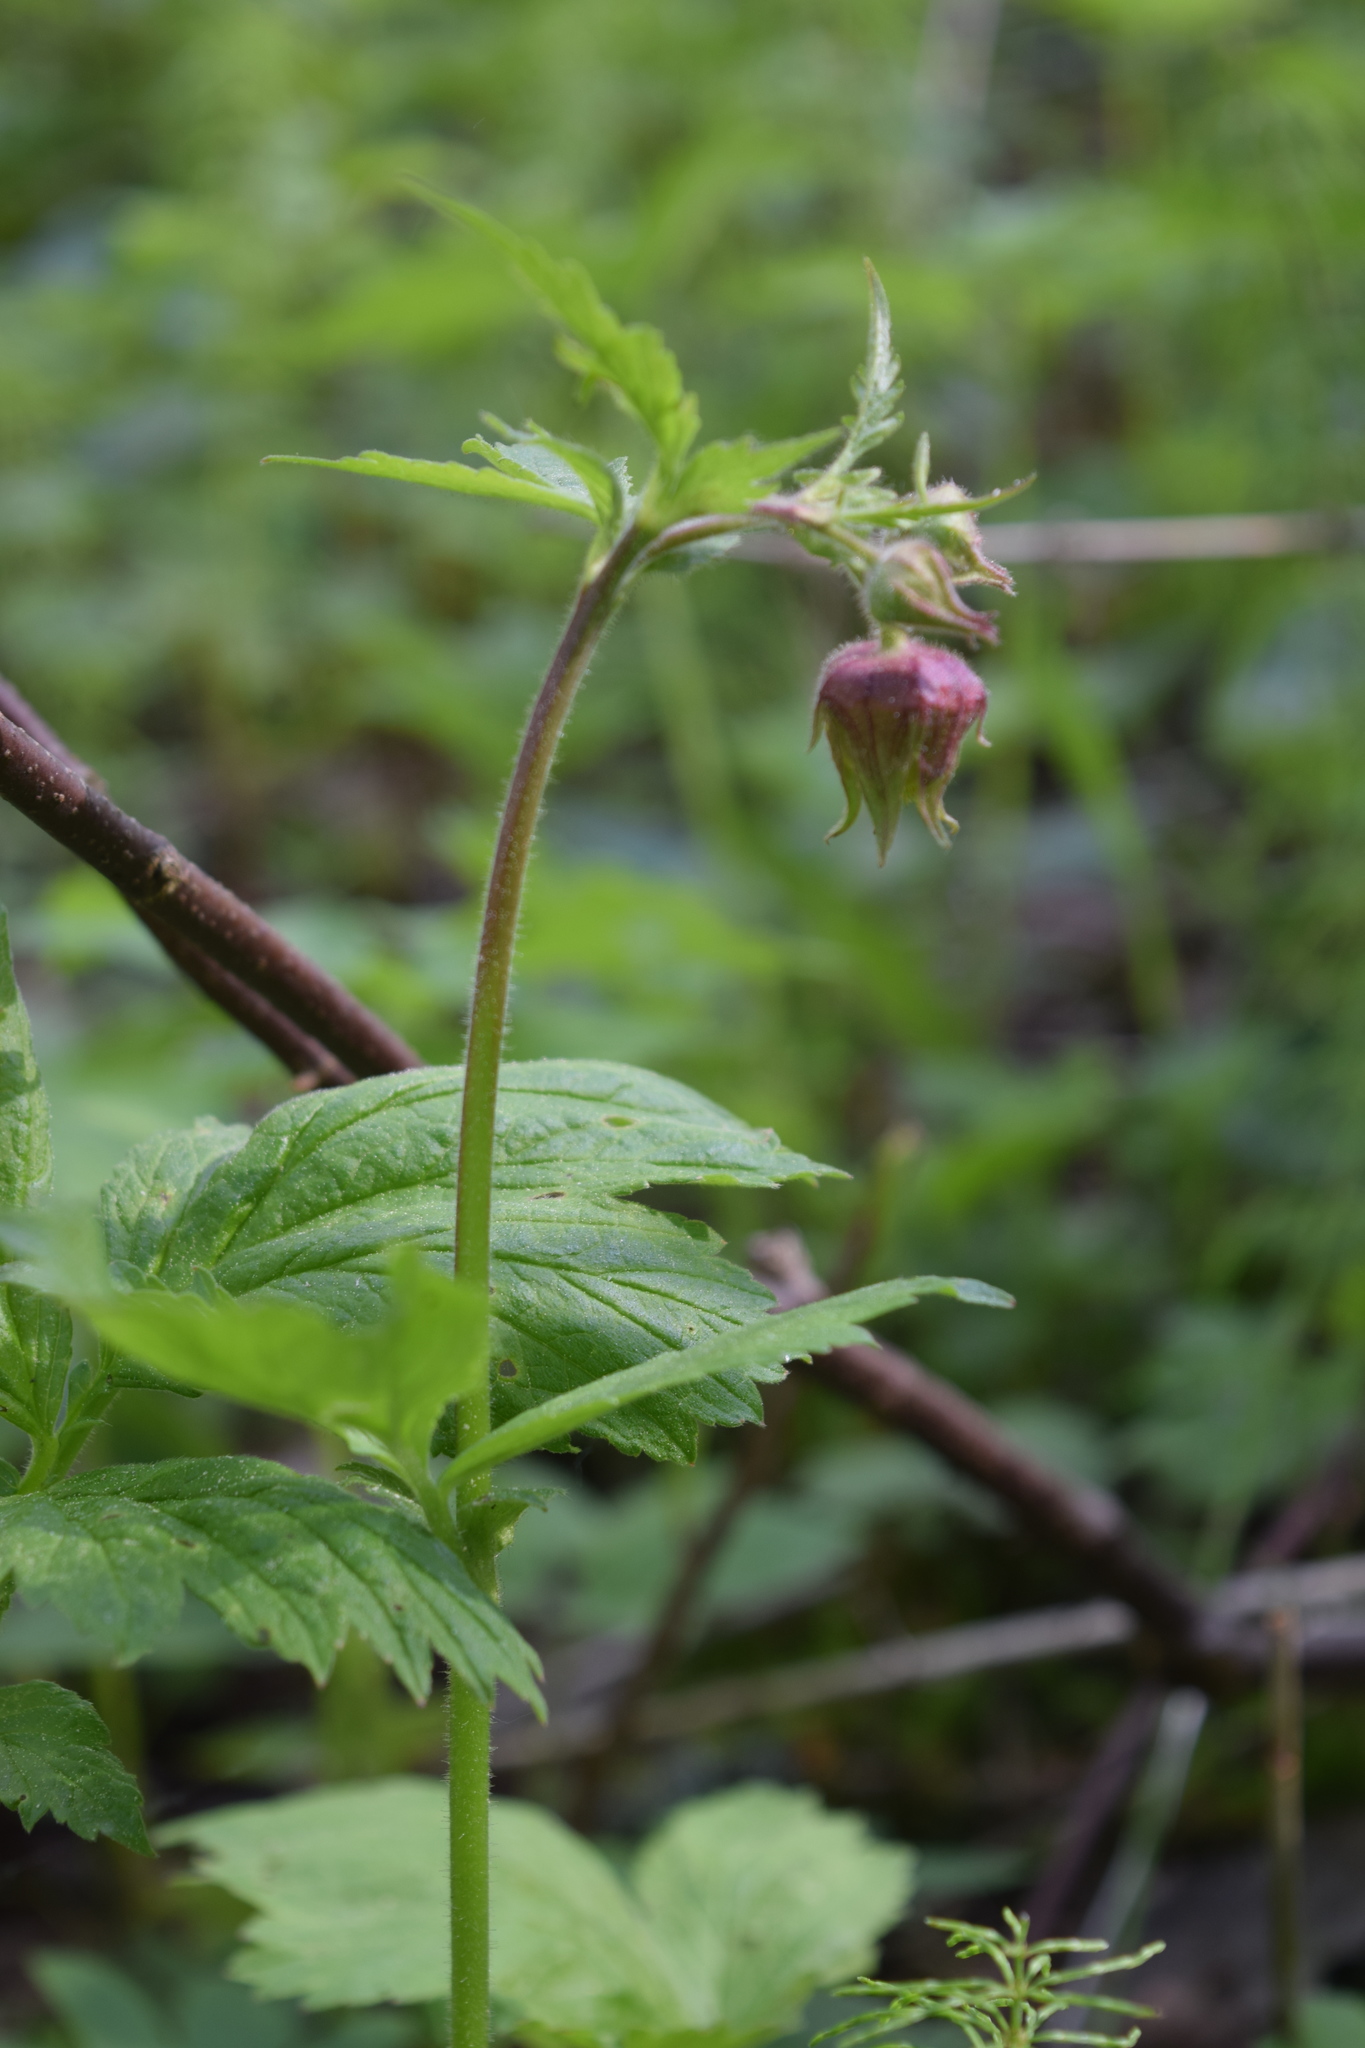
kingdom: Plantae
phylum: Tracheophyta
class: Magnoliopsida
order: Rosales
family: Rosaceae
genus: Geum
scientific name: Geum rivale
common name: Water avens
